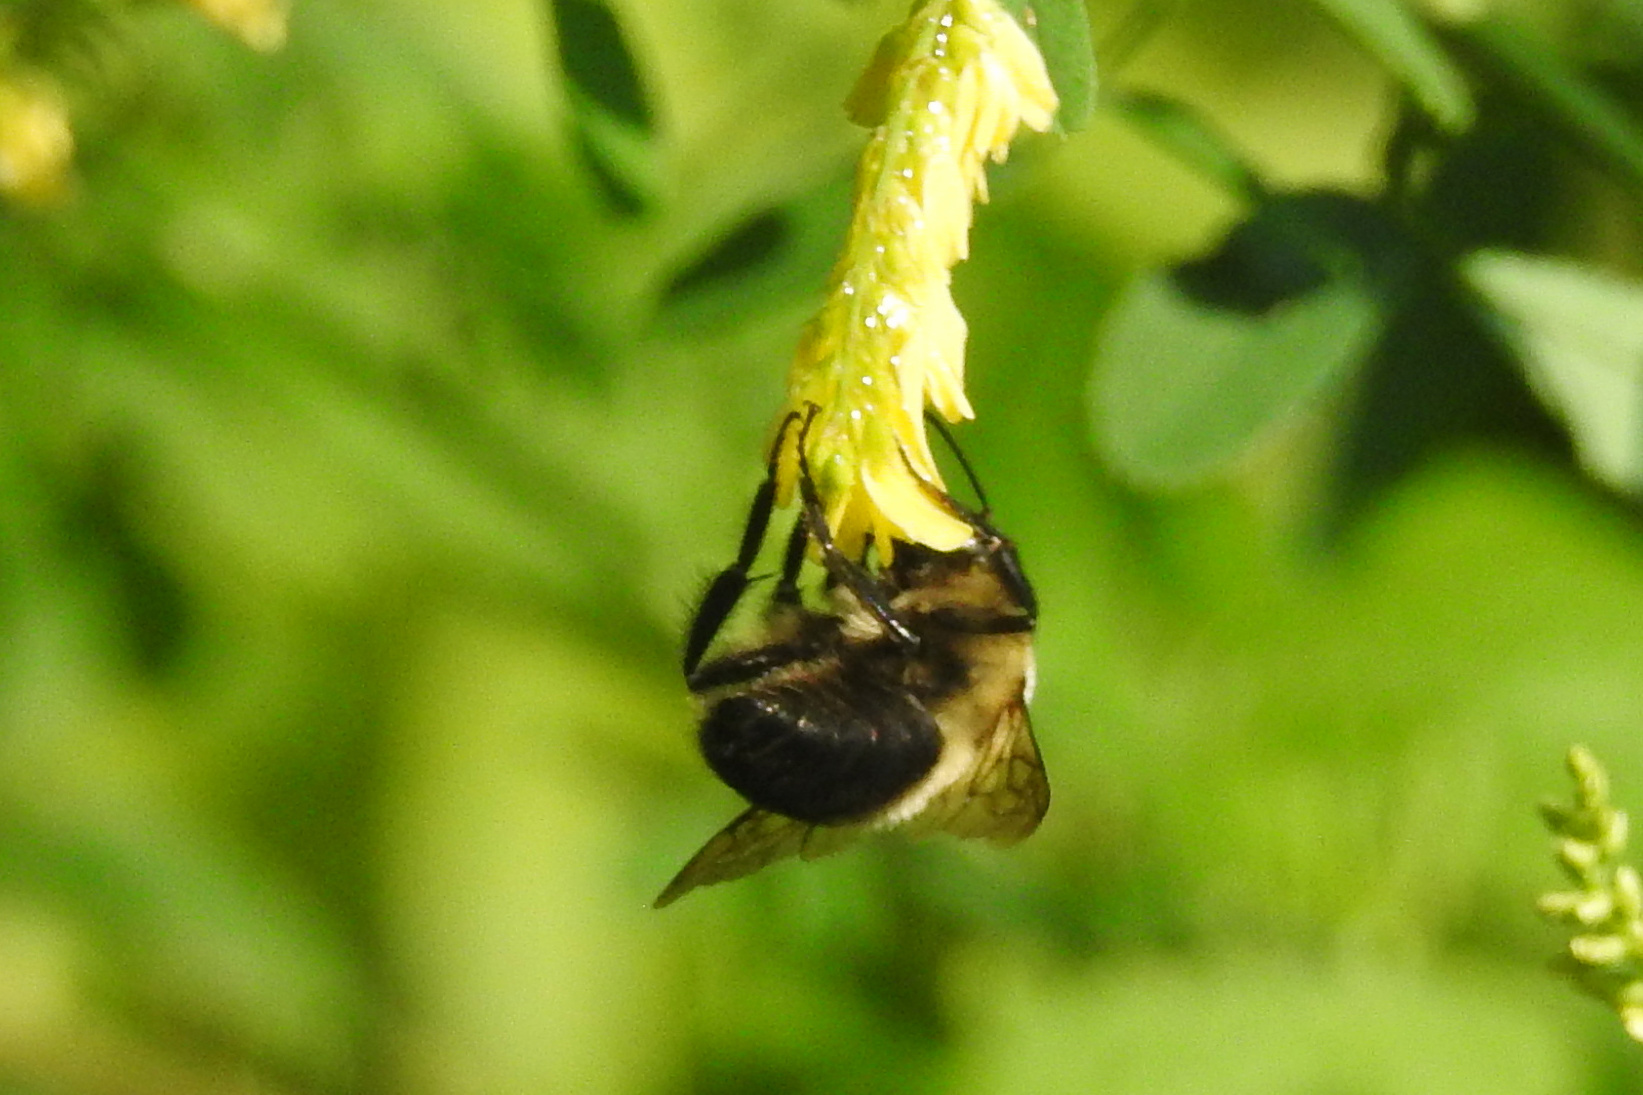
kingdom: Animalia
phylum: Arthropoda
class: Insecta
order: Hymenoptera
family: Apidae
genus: Bombus
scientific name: Bombus griseocollis
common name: Brown-belted bumble bee
